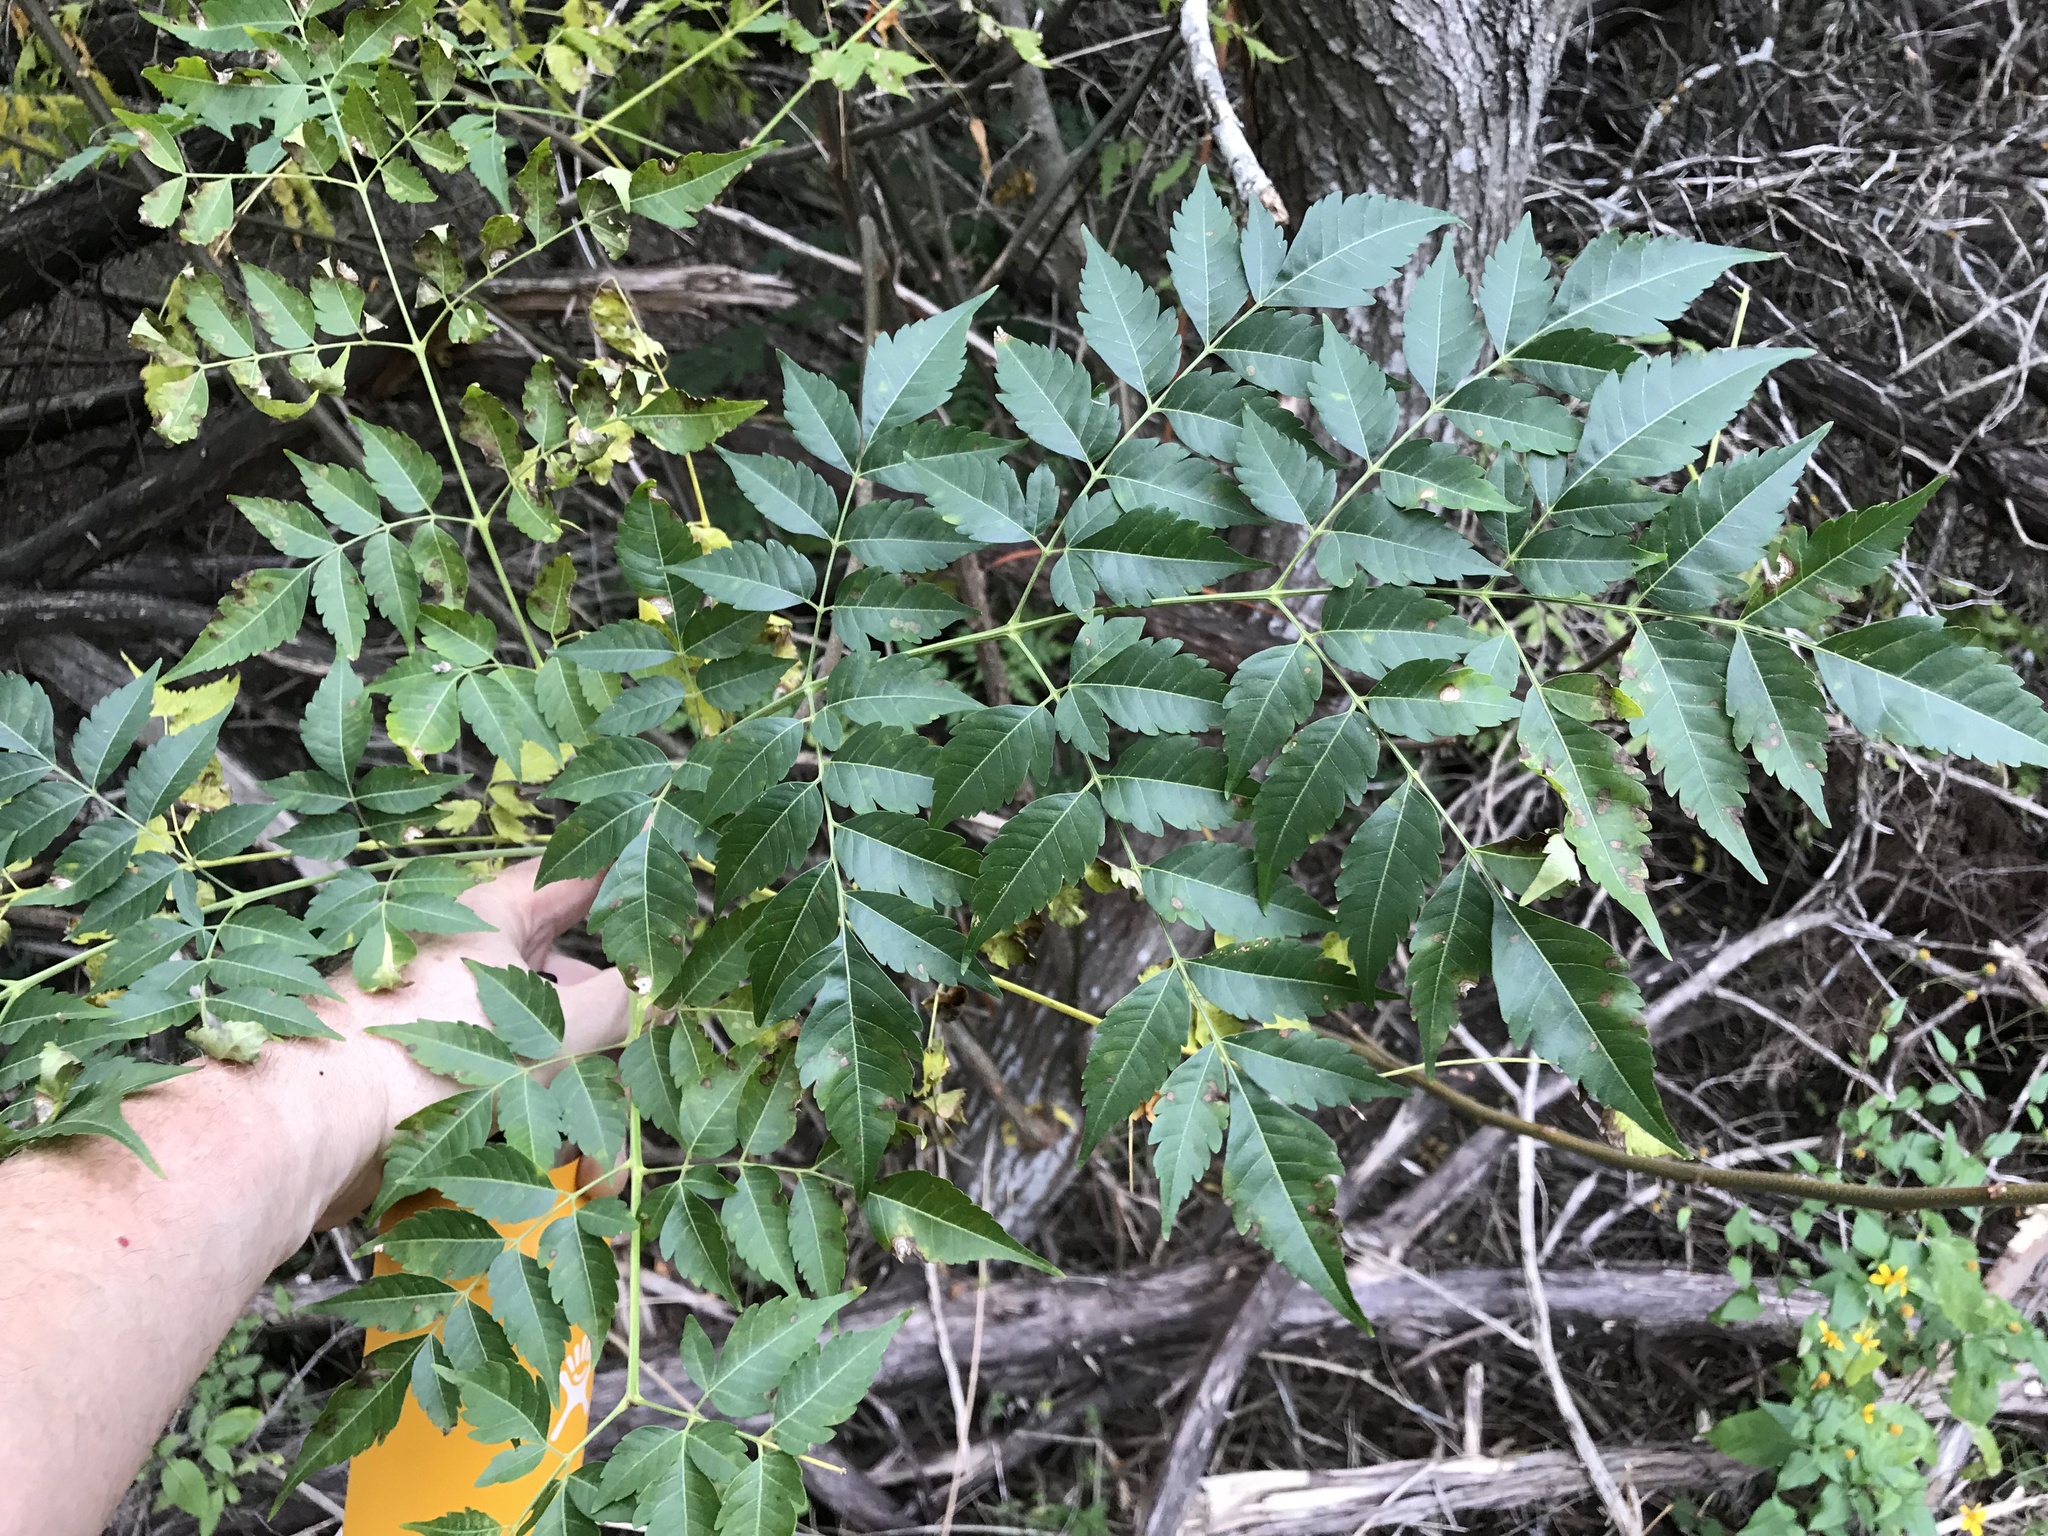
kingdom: Plantae
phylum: Tracheophyta
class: Magnoliopsida
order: Sapindales
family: Meliaceae
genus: Melia
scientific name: Melia azedarach
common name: Chinaberrytree
